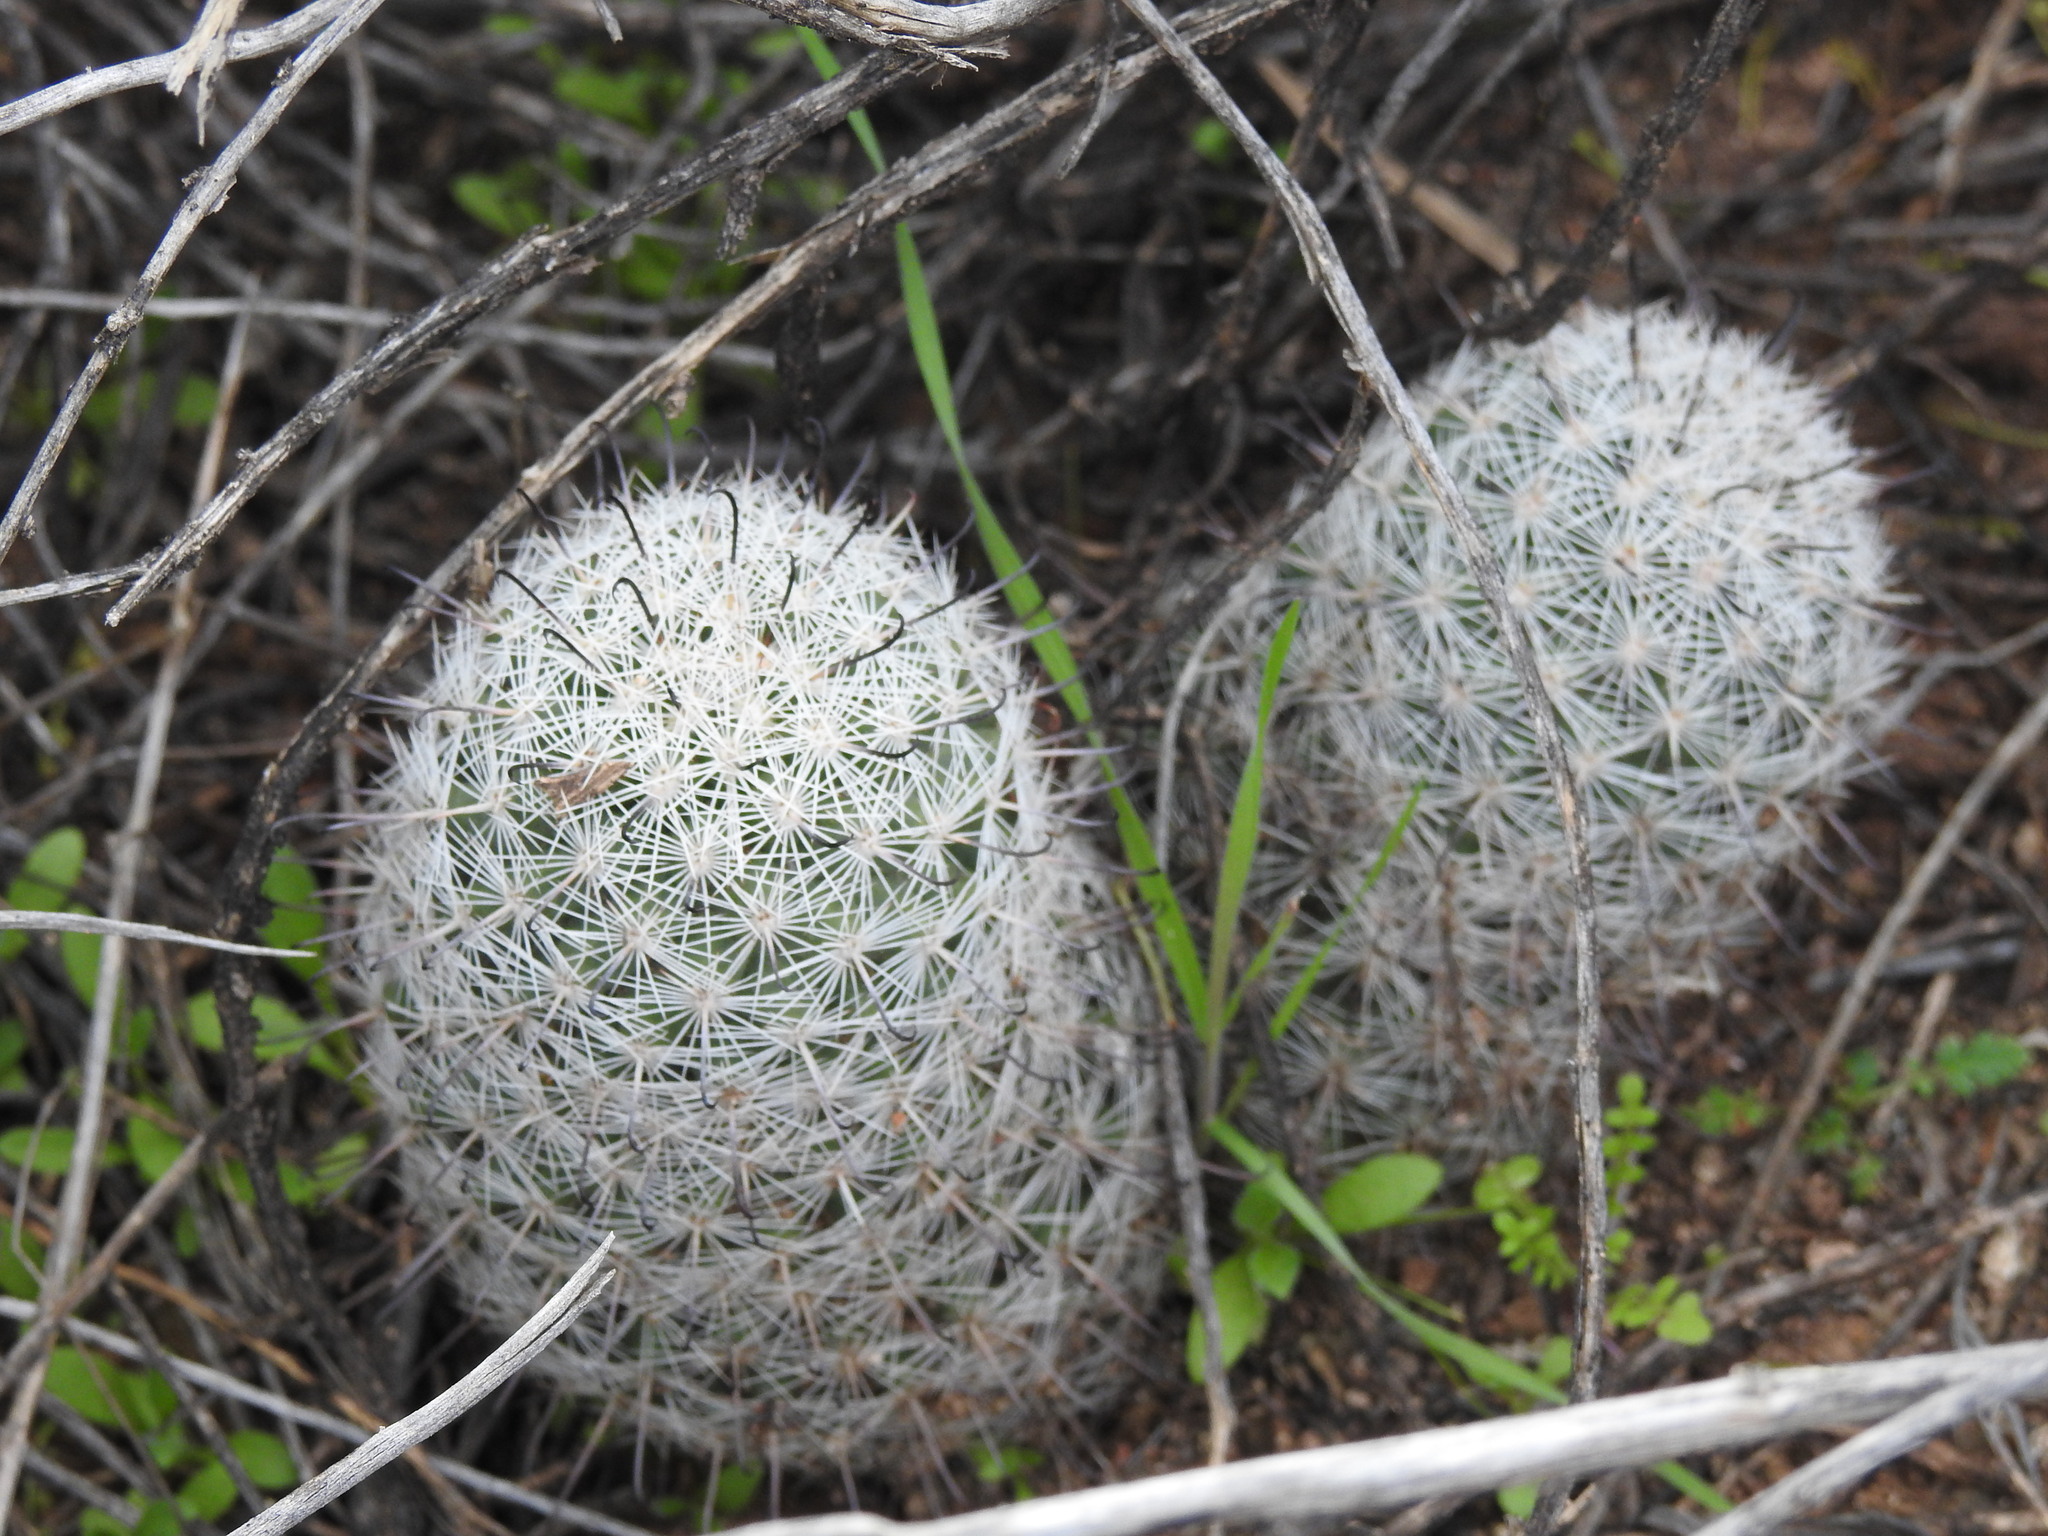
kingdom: Plantae
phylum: Tracheophyta
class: Magnoliopsida
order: Caryophyllales
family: Cactaceae
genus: Cochemiea
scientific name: Cochemiea grahamii
